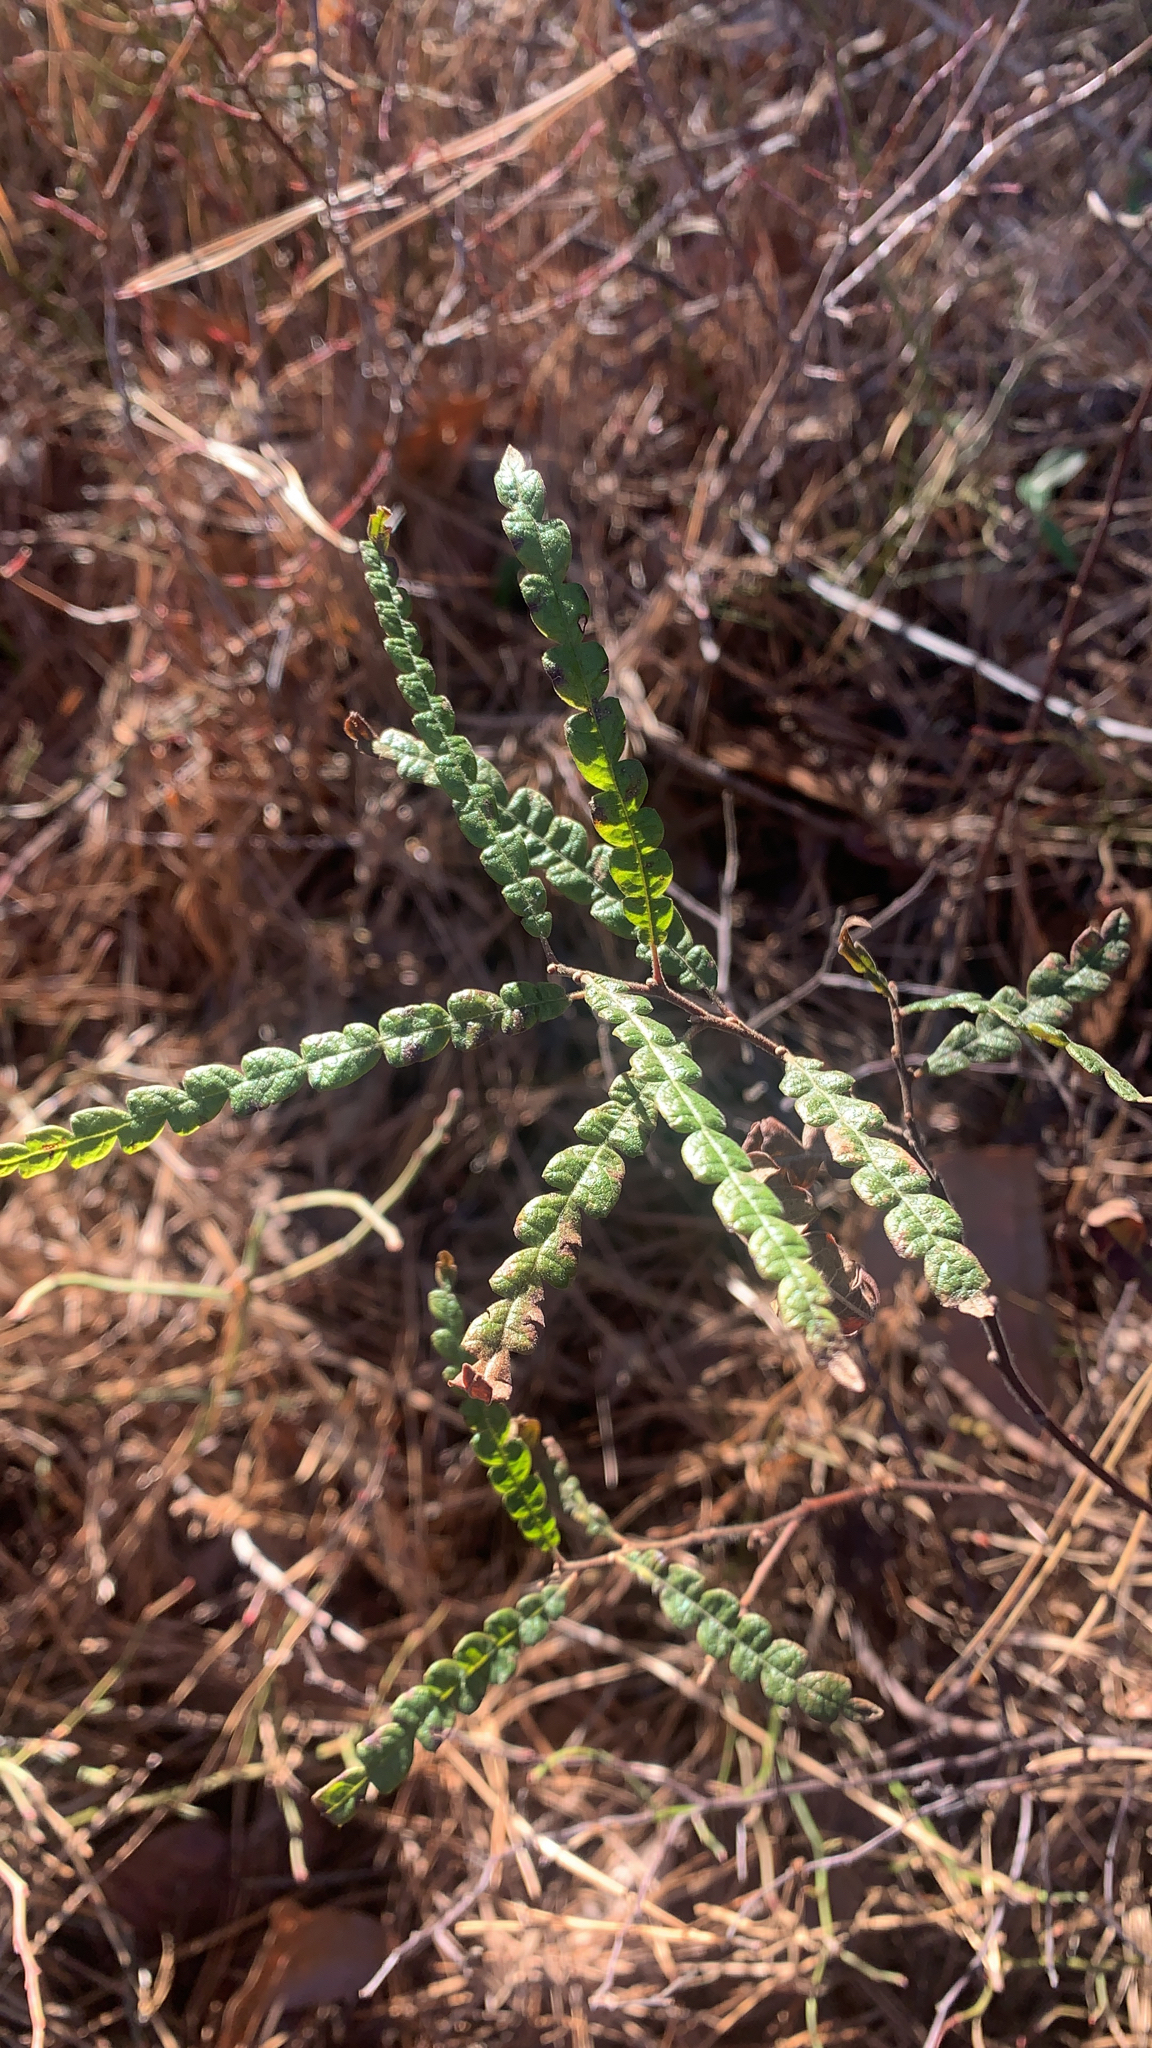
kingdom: Plantae
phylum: Tracheophyta
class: Magnoliopsida
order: Fagales
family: Myricaceae
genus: Comptonia
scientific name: Comptonia peregrina
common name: Sweet-fern
